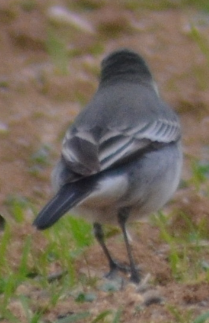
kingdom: Animalia
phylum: Chordata
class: Aves
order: Passeriformes
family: Motacillidae
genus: Motacilla
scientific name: Motacilla alba
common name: White wagtail
